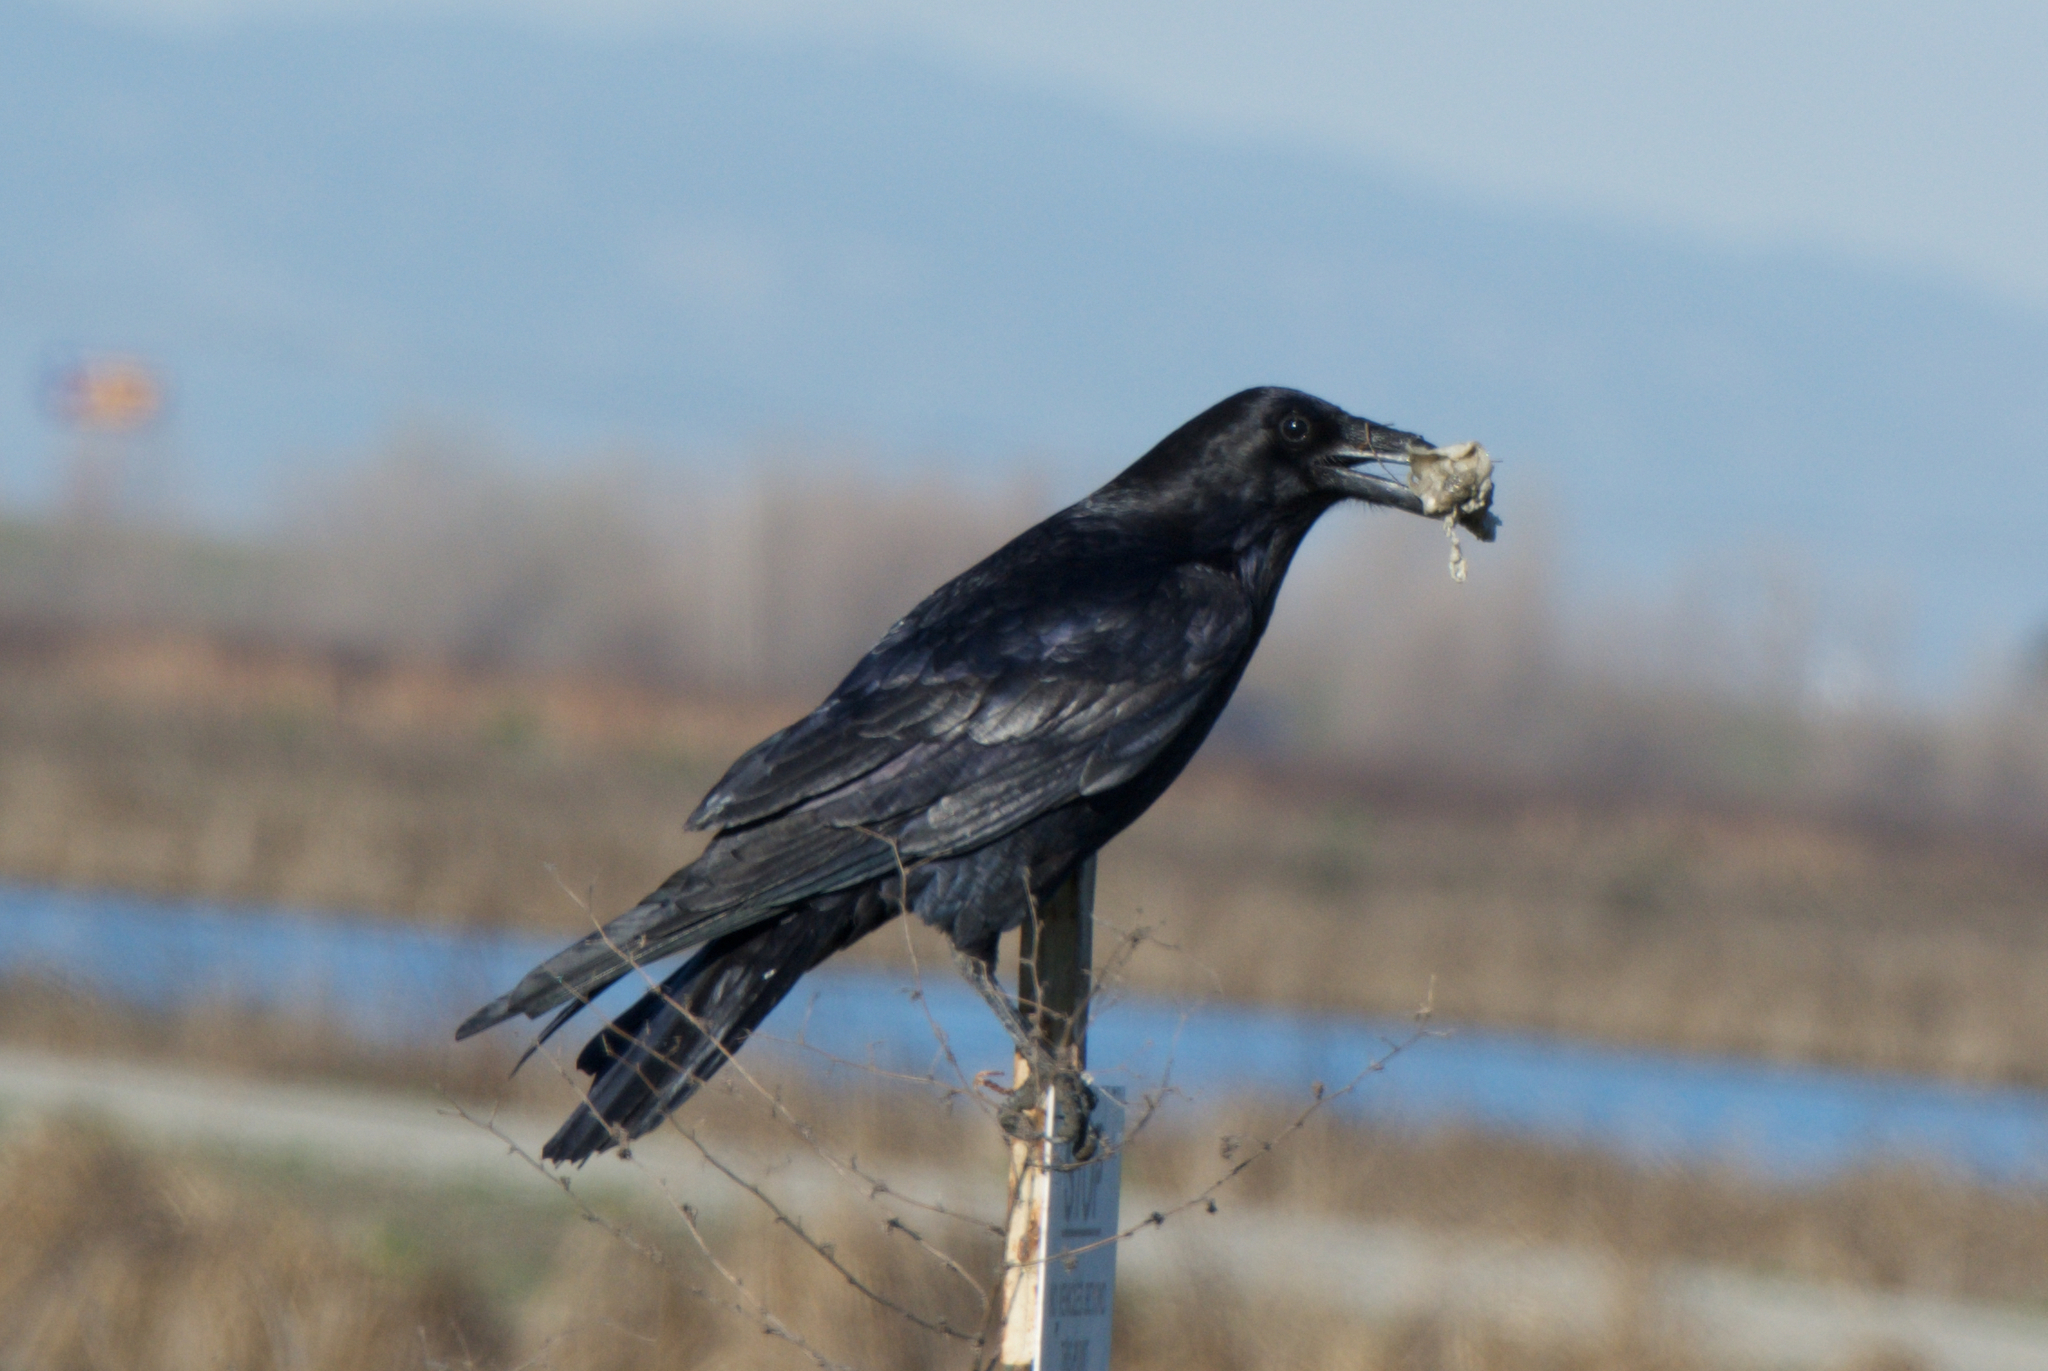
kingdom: Animalia
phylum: Chordata
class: Aves
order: Passeriformes
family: Corvidae
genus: Corvus
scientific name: Corvus corax
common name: Common raven
